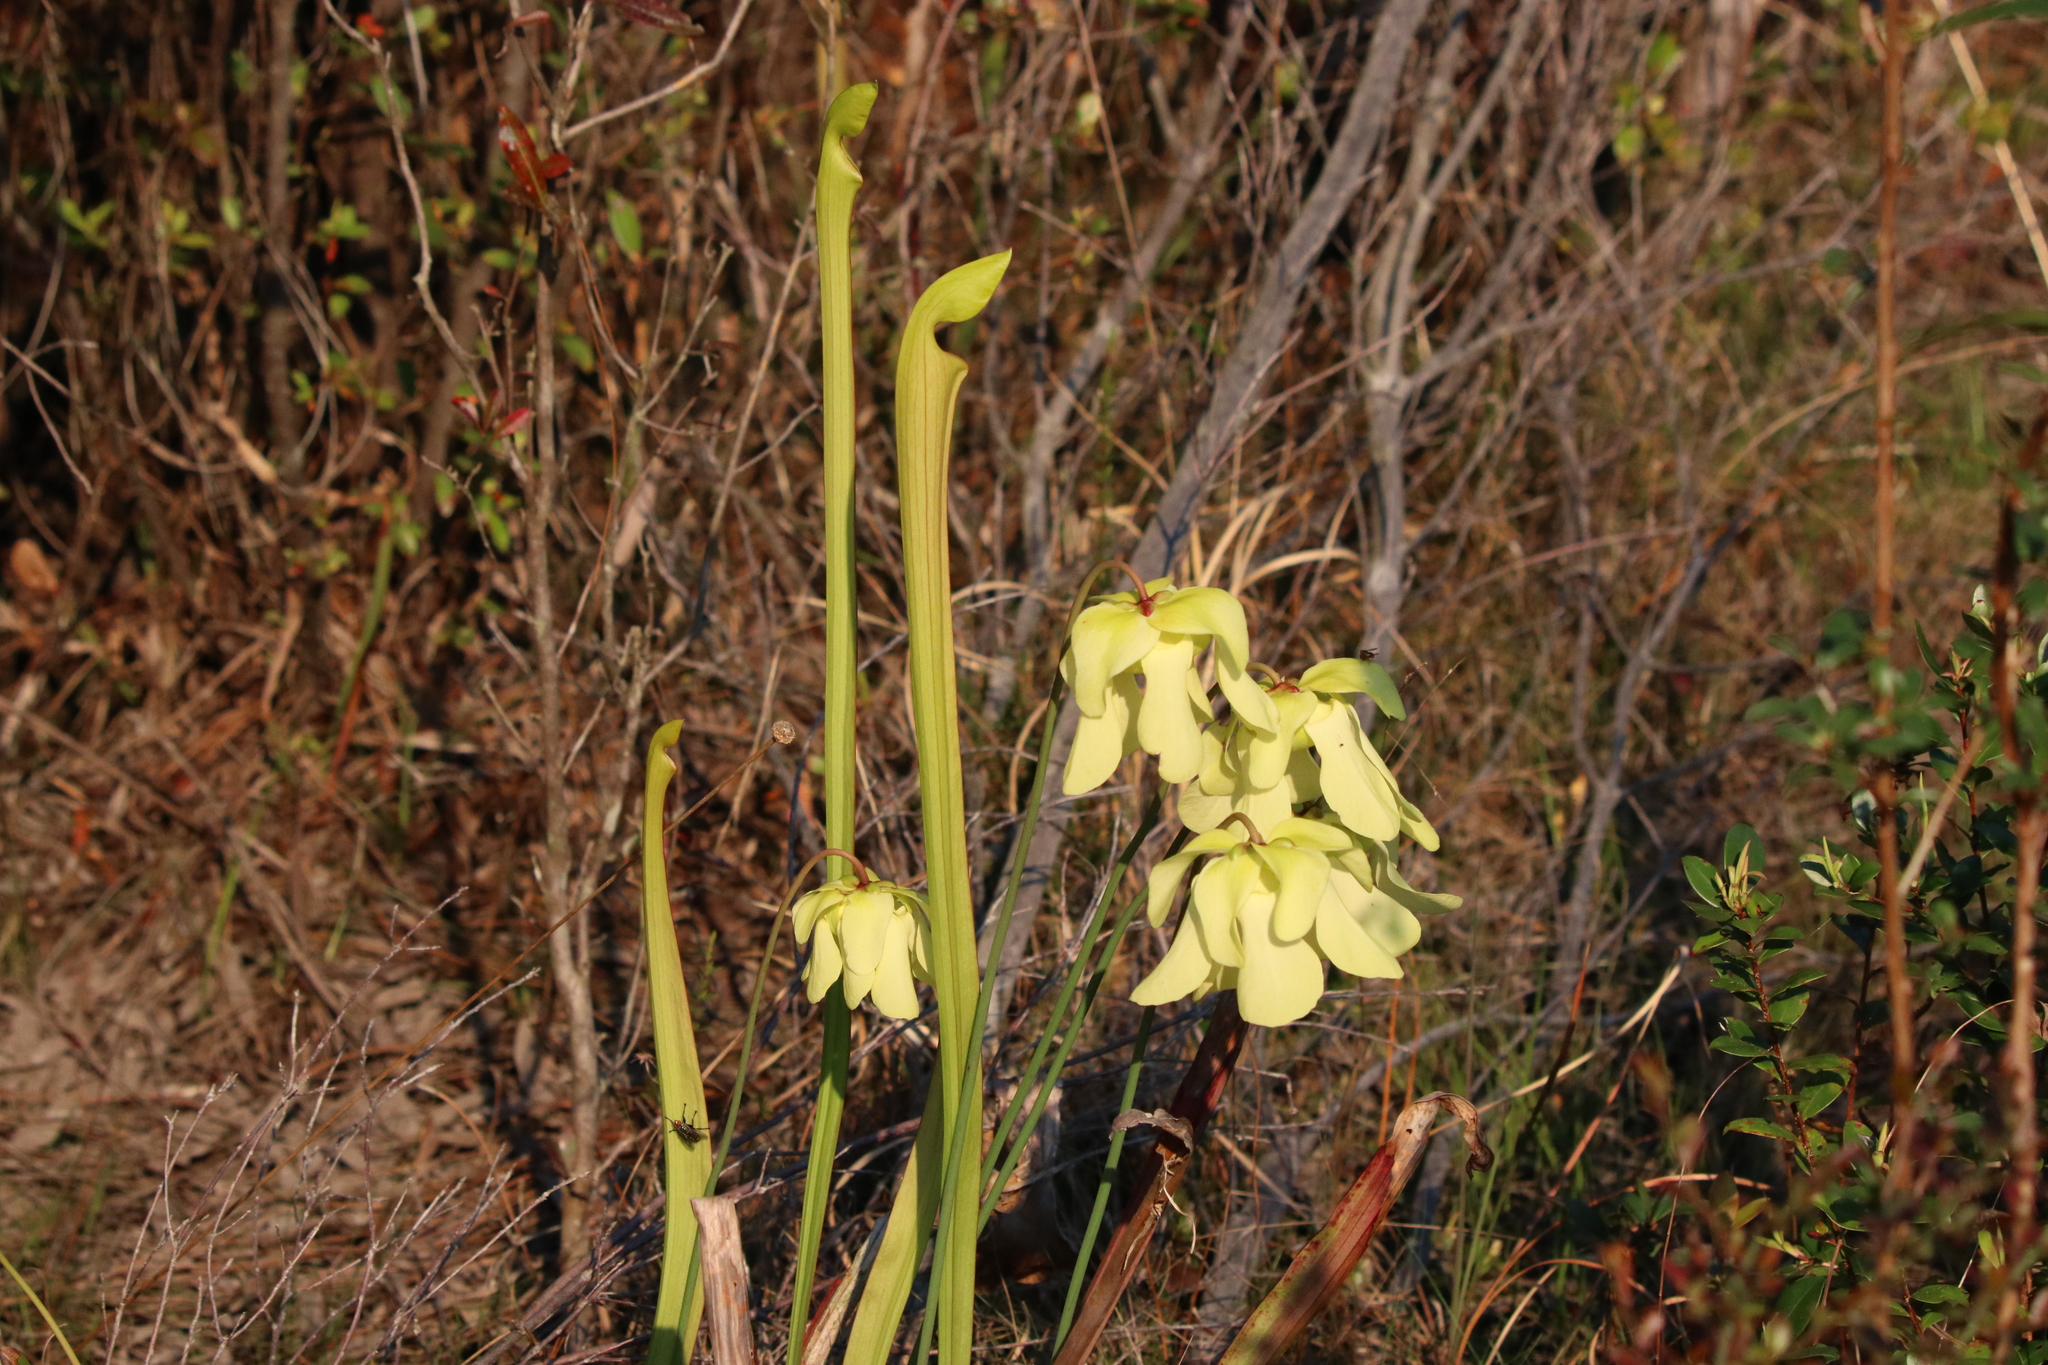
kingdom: Plantae
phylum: Tracheophyta
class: Magnoliopsida
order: Ericales
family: Sarraceniaceae
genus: Sarracenia
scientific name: Sarracenia alata
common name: Yellow trumpets
